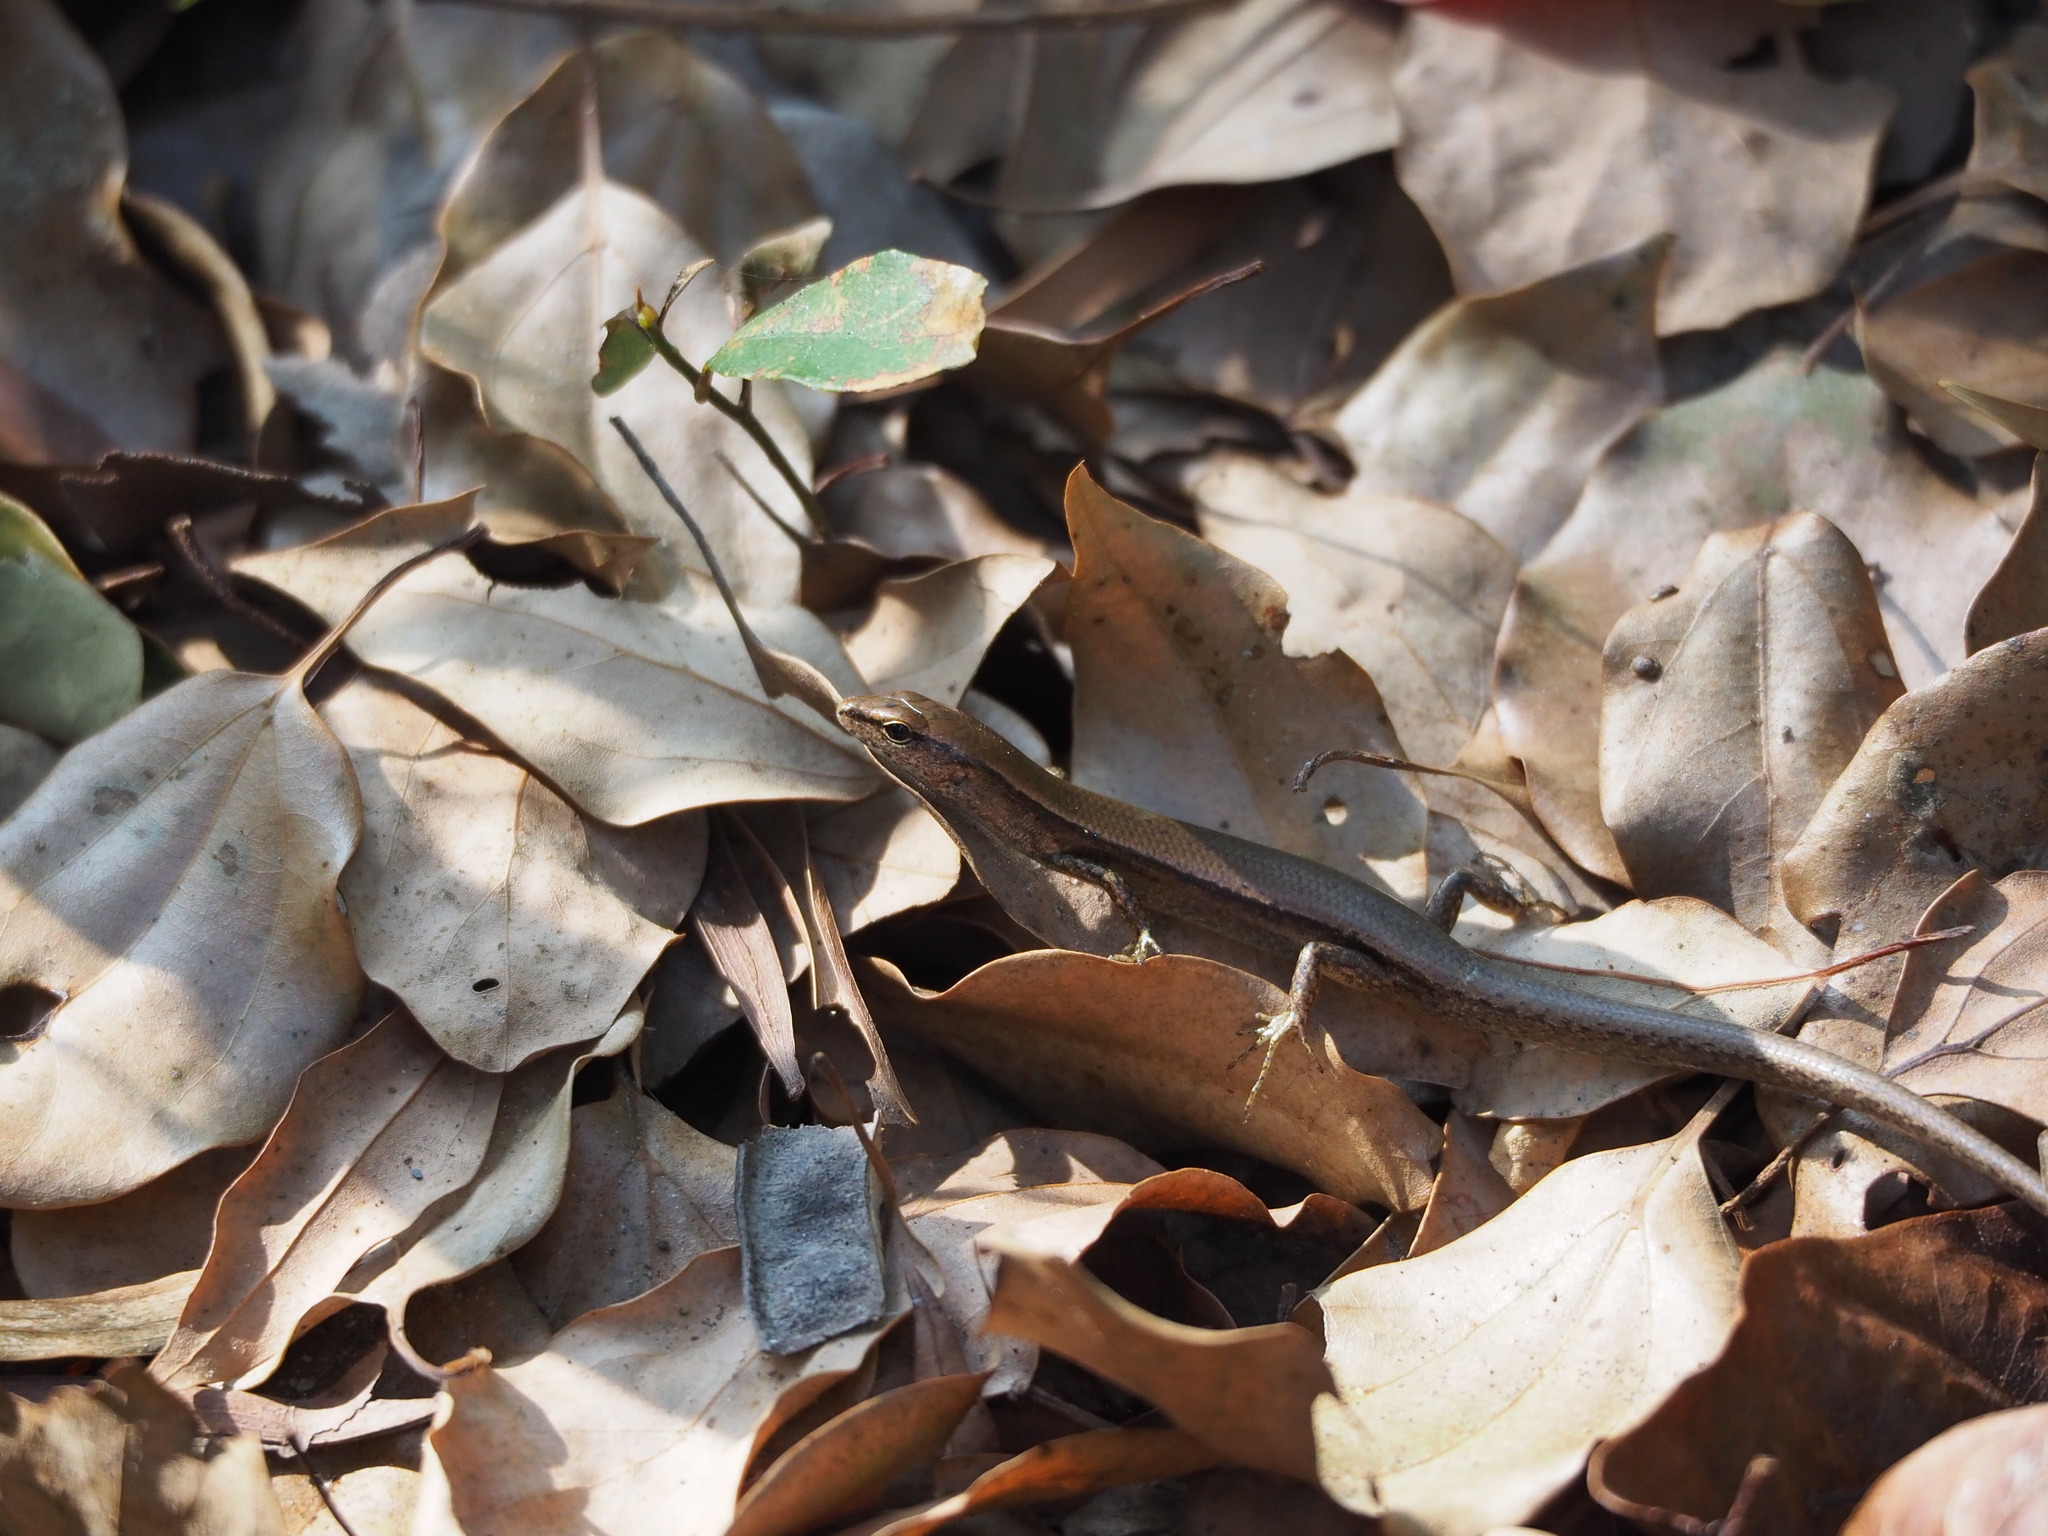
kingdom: Animalia
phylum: Chordata
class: Squamata
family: Scincidae
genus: Scincella
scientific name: Scincella formosensis
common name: Van denburgh's ground skink
